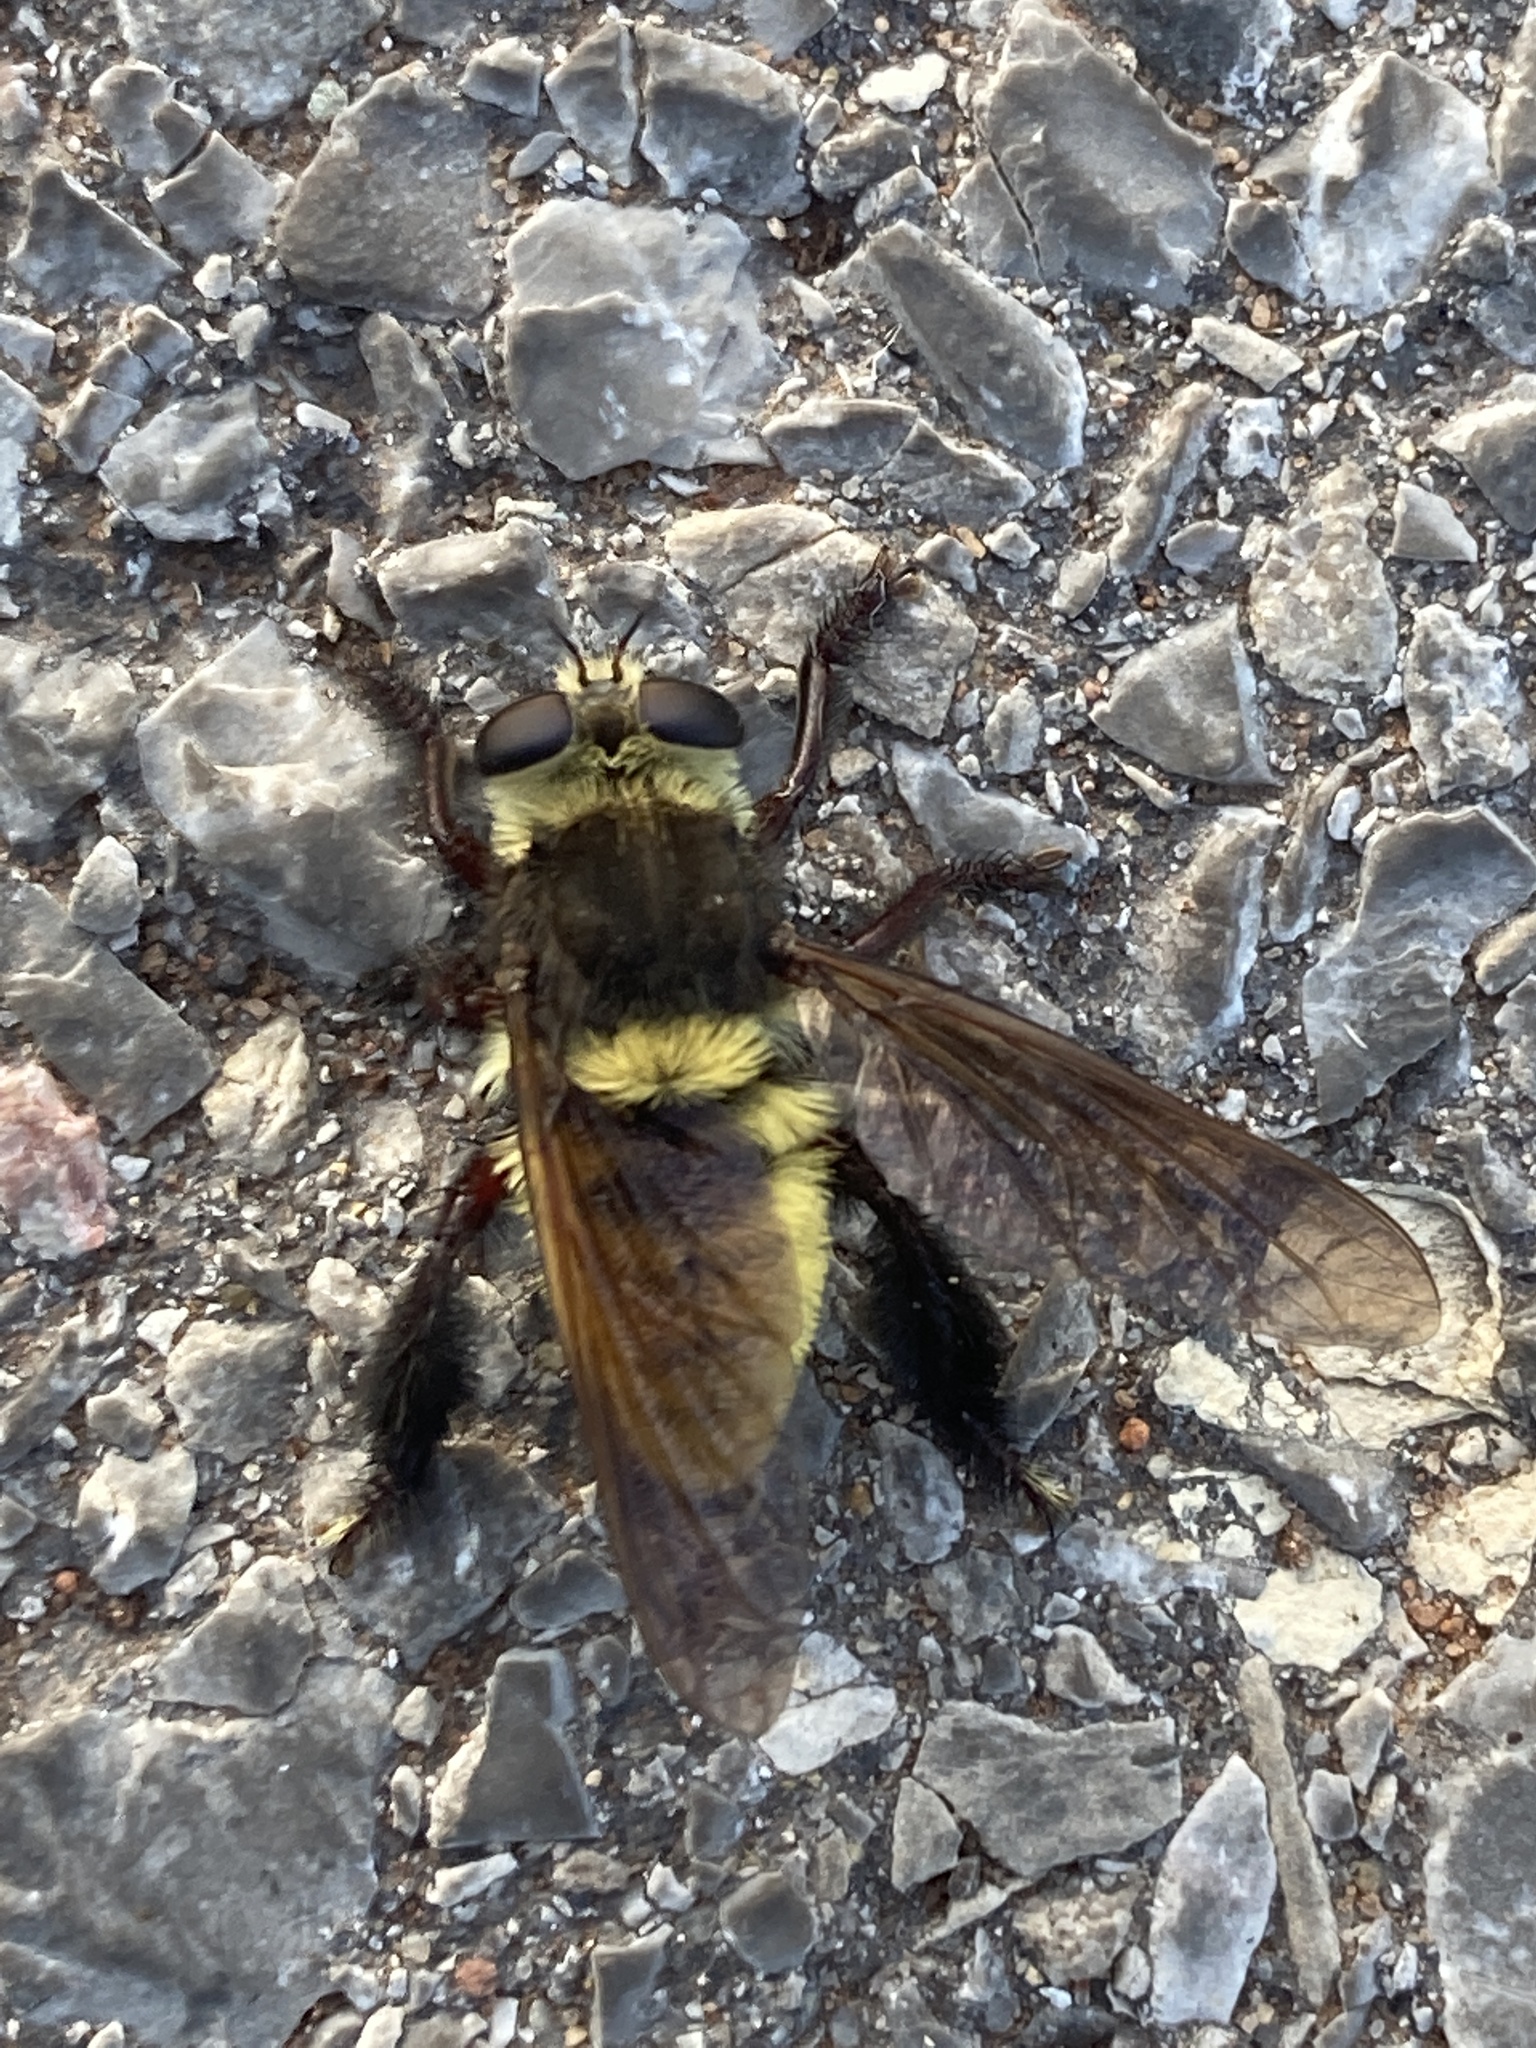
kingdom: Animalia
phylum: Arthropoda
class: Insecta
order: Diptera
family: Asilidae
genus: Mallophora
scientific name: Mallophora fautrix
